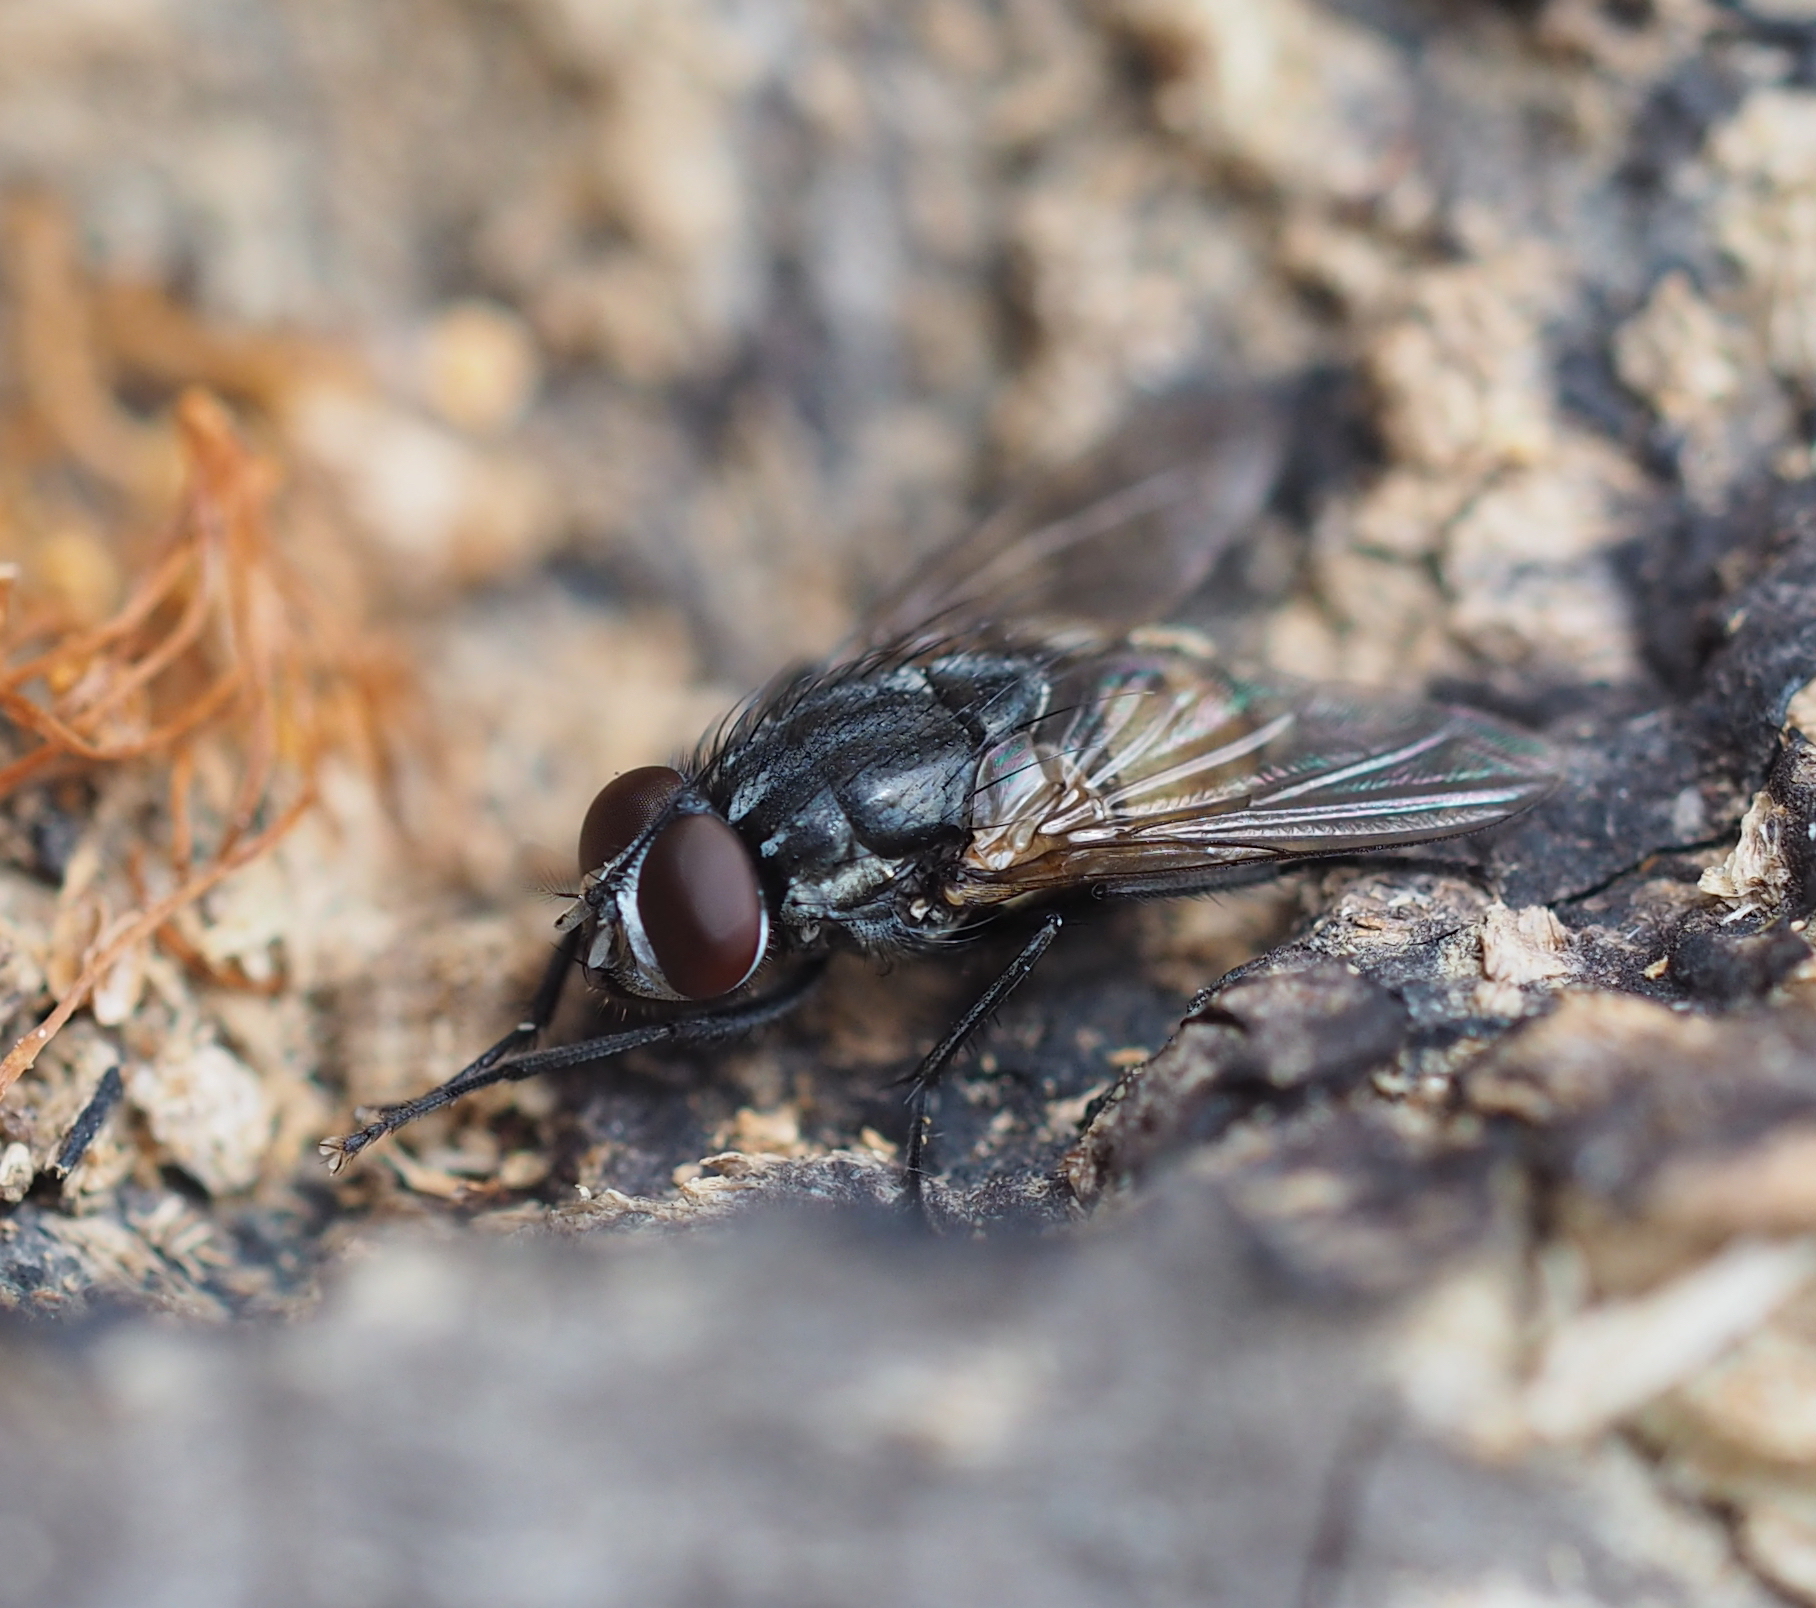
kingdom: Animalia
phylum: Arthropoda
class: Insecta
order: Diptera
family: Muscidae
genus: Musca
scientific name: Musca autumnalis
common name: Face fly
